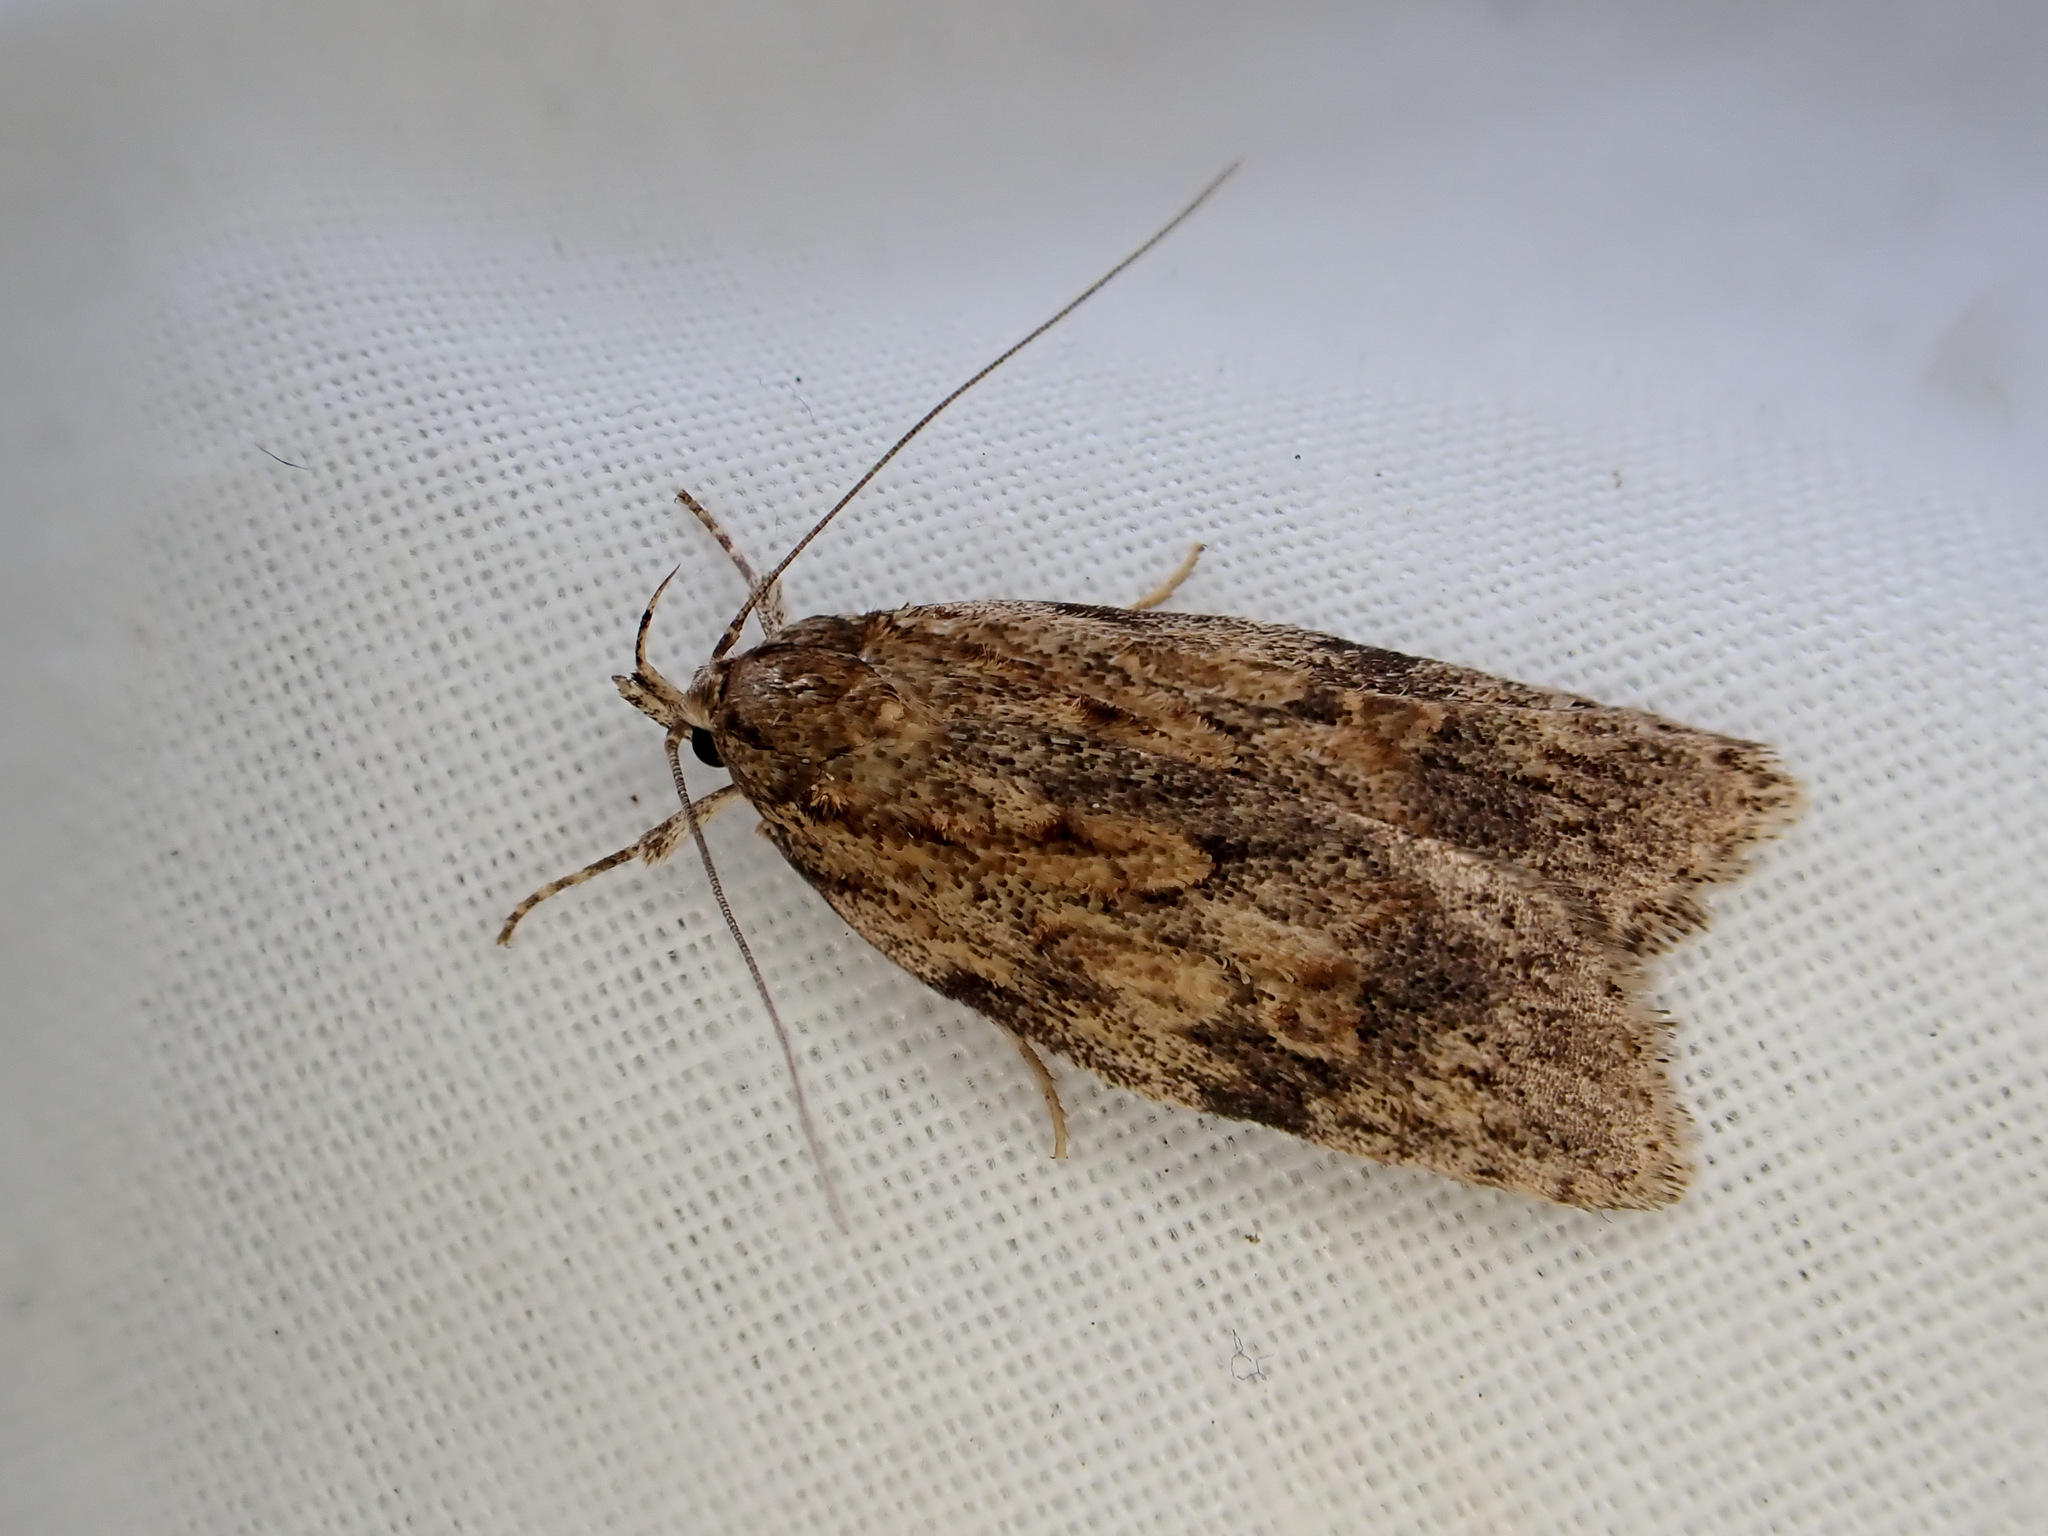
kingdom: Animalia
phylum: Arthropoda
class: Insecta
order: Lepidoptera
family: Oecophoridae
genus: Izatha
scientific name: Izatha voluptuosa
